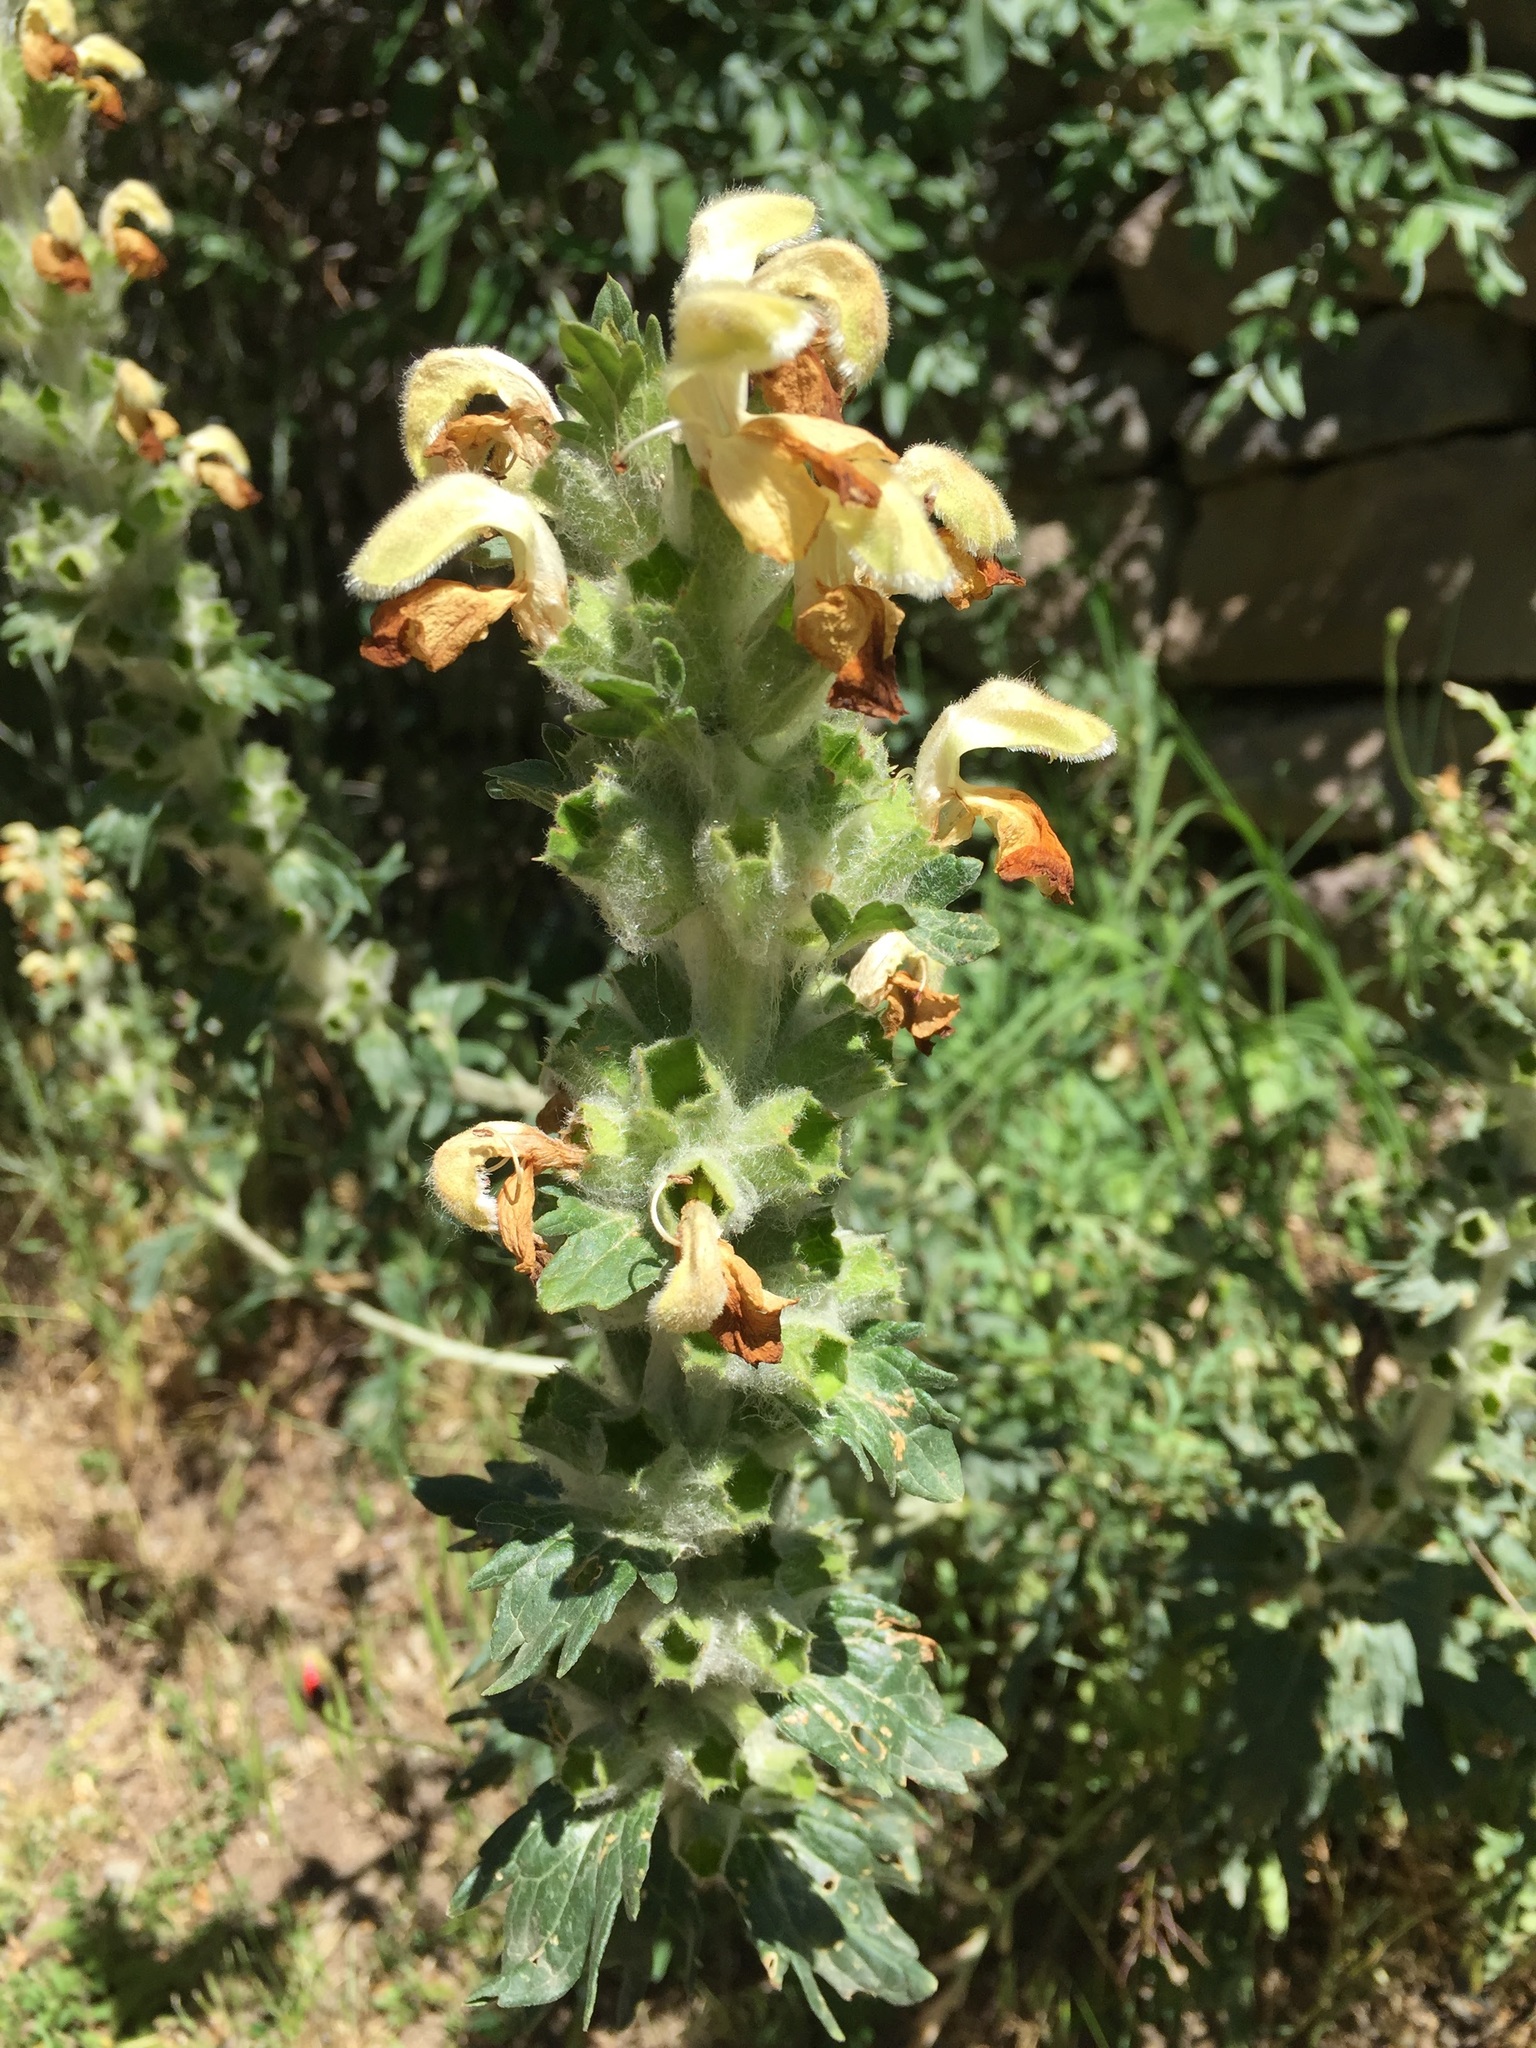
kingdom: Plantae
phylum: Tracheophyta
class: Magnoliopsida
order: Lamiales
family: Lamiaceae
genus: Phlomoides
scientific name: Phlomoides laciniata
